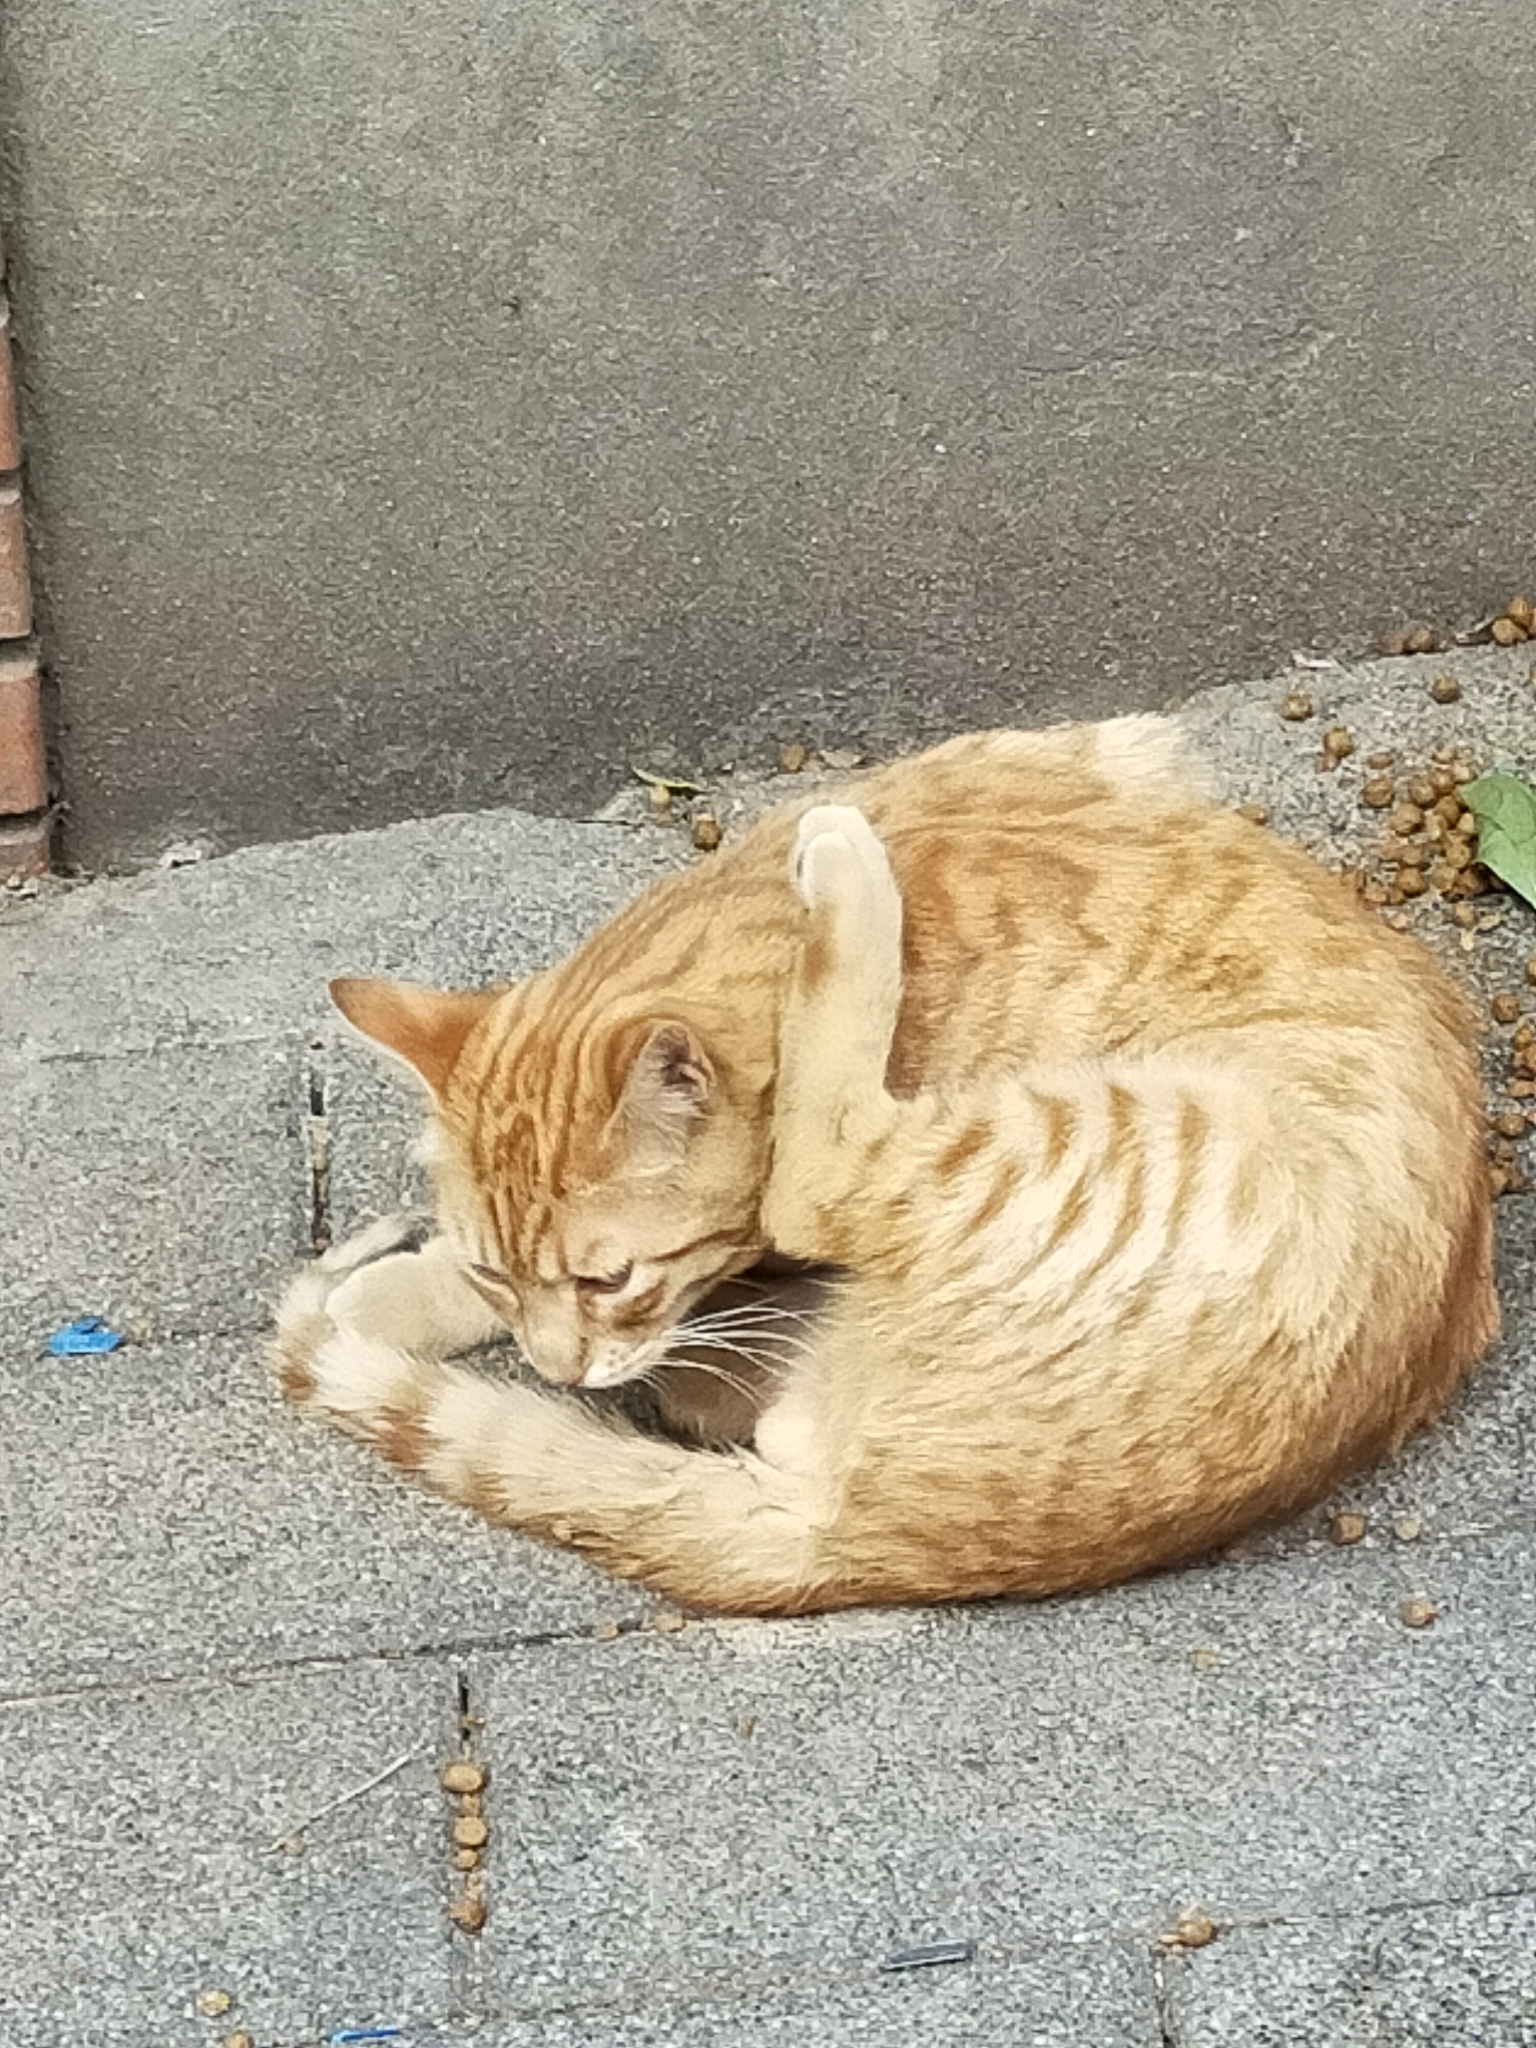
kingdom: Animalia
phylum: Chordata
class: Mammalia
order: Carnivora
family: Felidae
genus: Felis
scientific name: Felis catus
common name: Domestic cat
